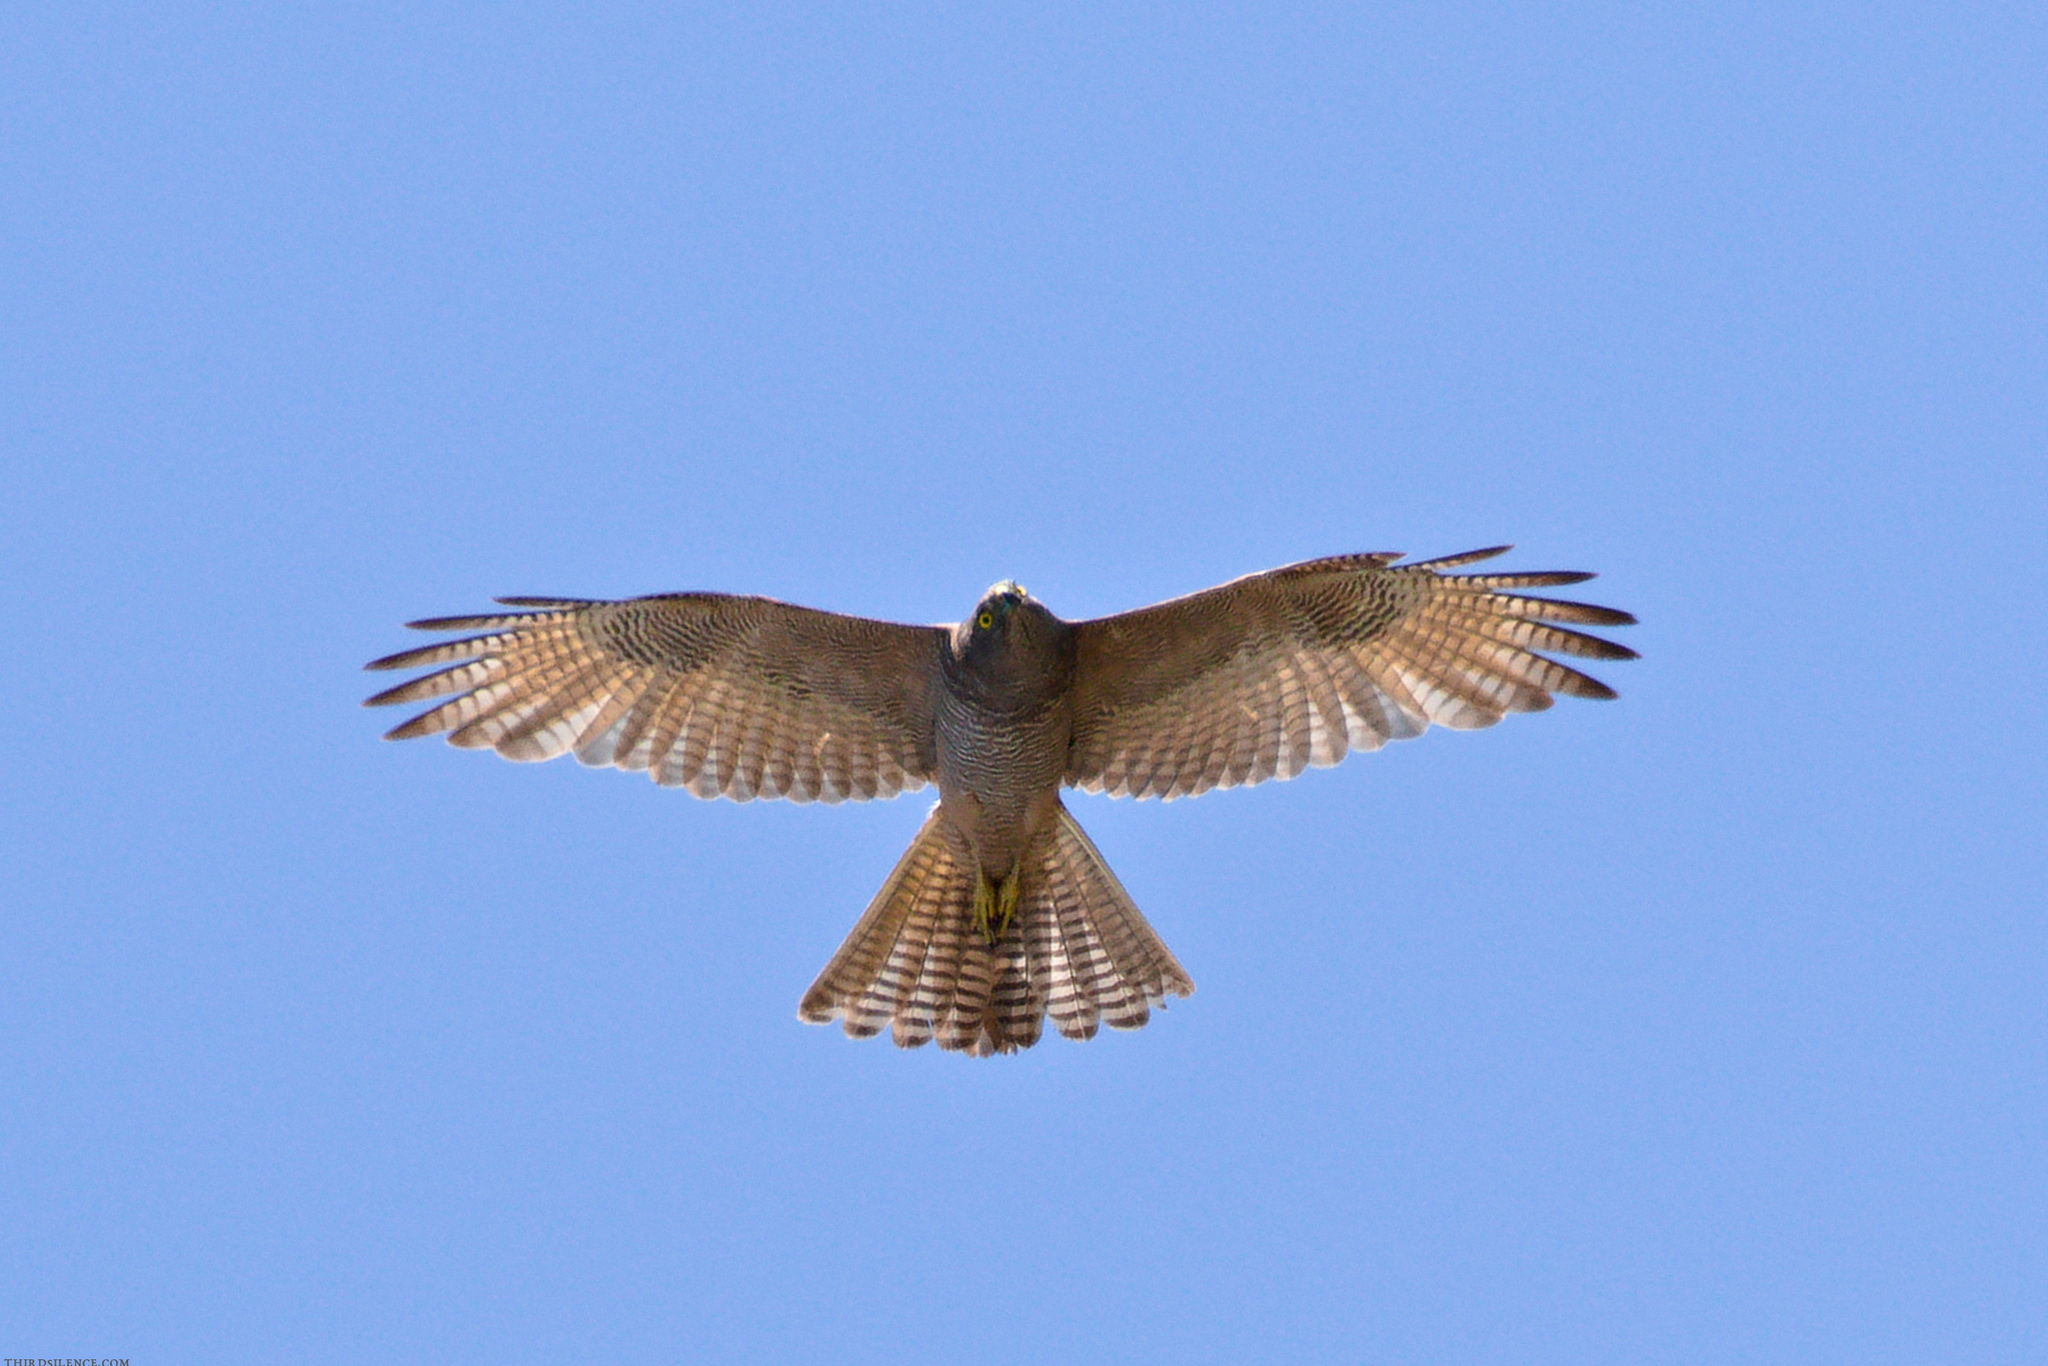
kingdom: Animalia
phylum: Chordata
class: Aves
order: Accipitriformes
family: Accipitridae
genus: Accipiter
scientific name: Accipiter fasciatus
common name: Brown goshawk
